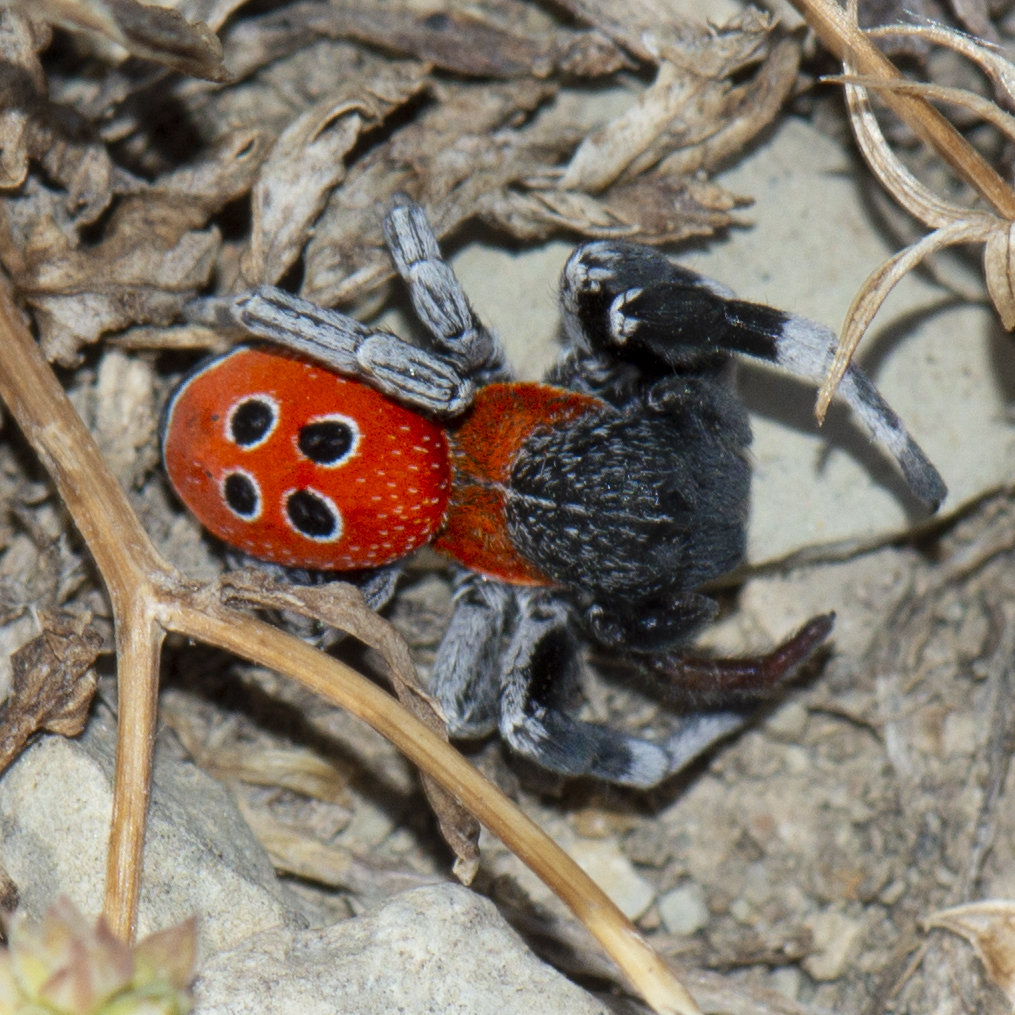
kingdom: Animalia
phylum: Arthropoda
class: Arachnida
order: Araneae
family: Eresidae
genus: Eresus
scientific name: Eresus
